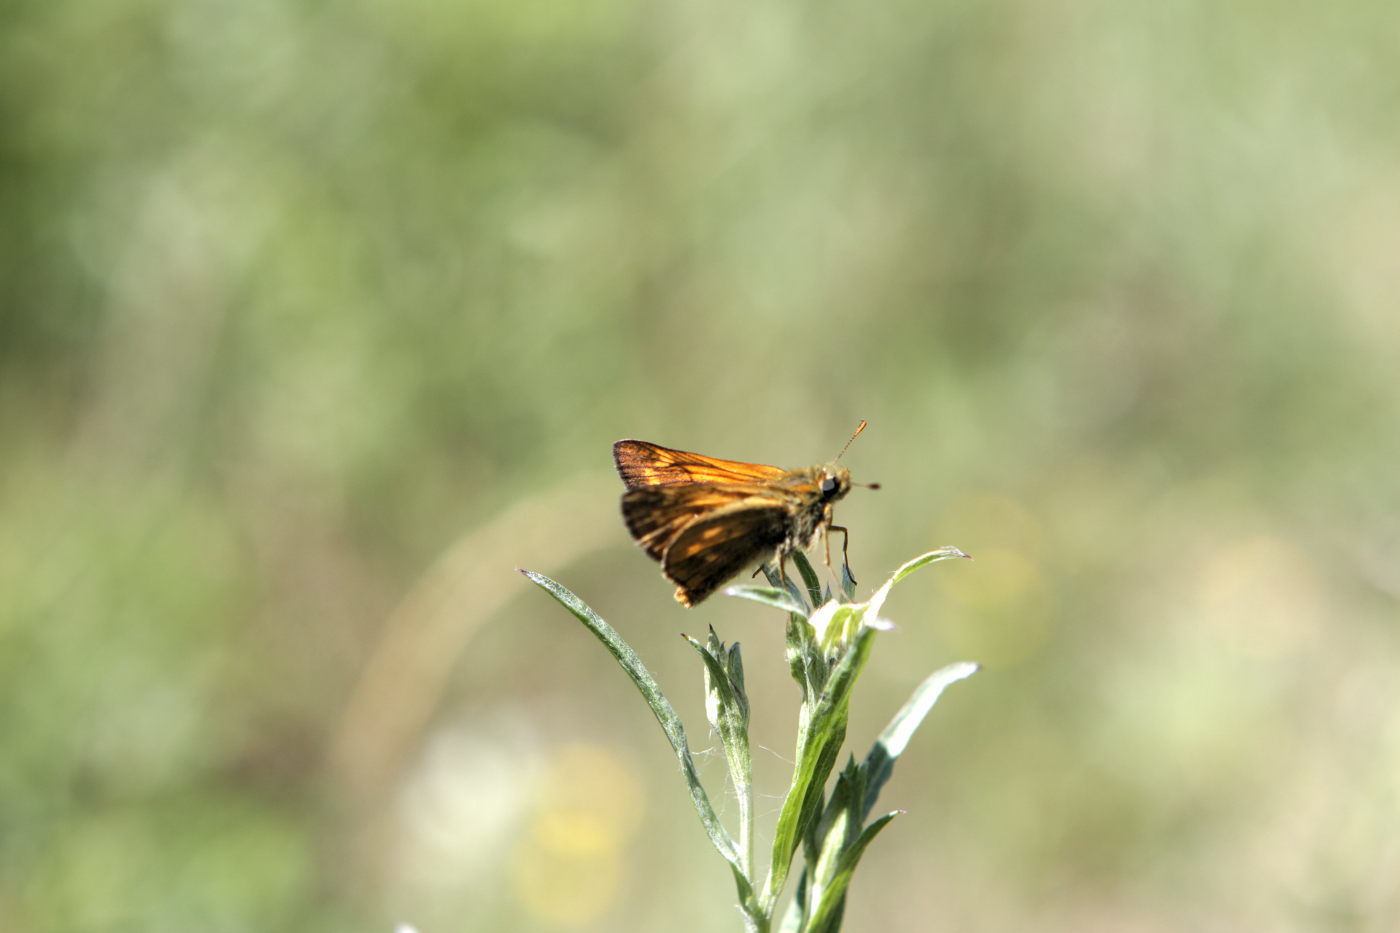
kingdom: Animalia
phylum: Arthropoda
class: Insecta
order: Lepidoptera
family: Hesperiidae
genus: Ochlodes
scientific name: Ochlodes venata
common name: Large skipper
